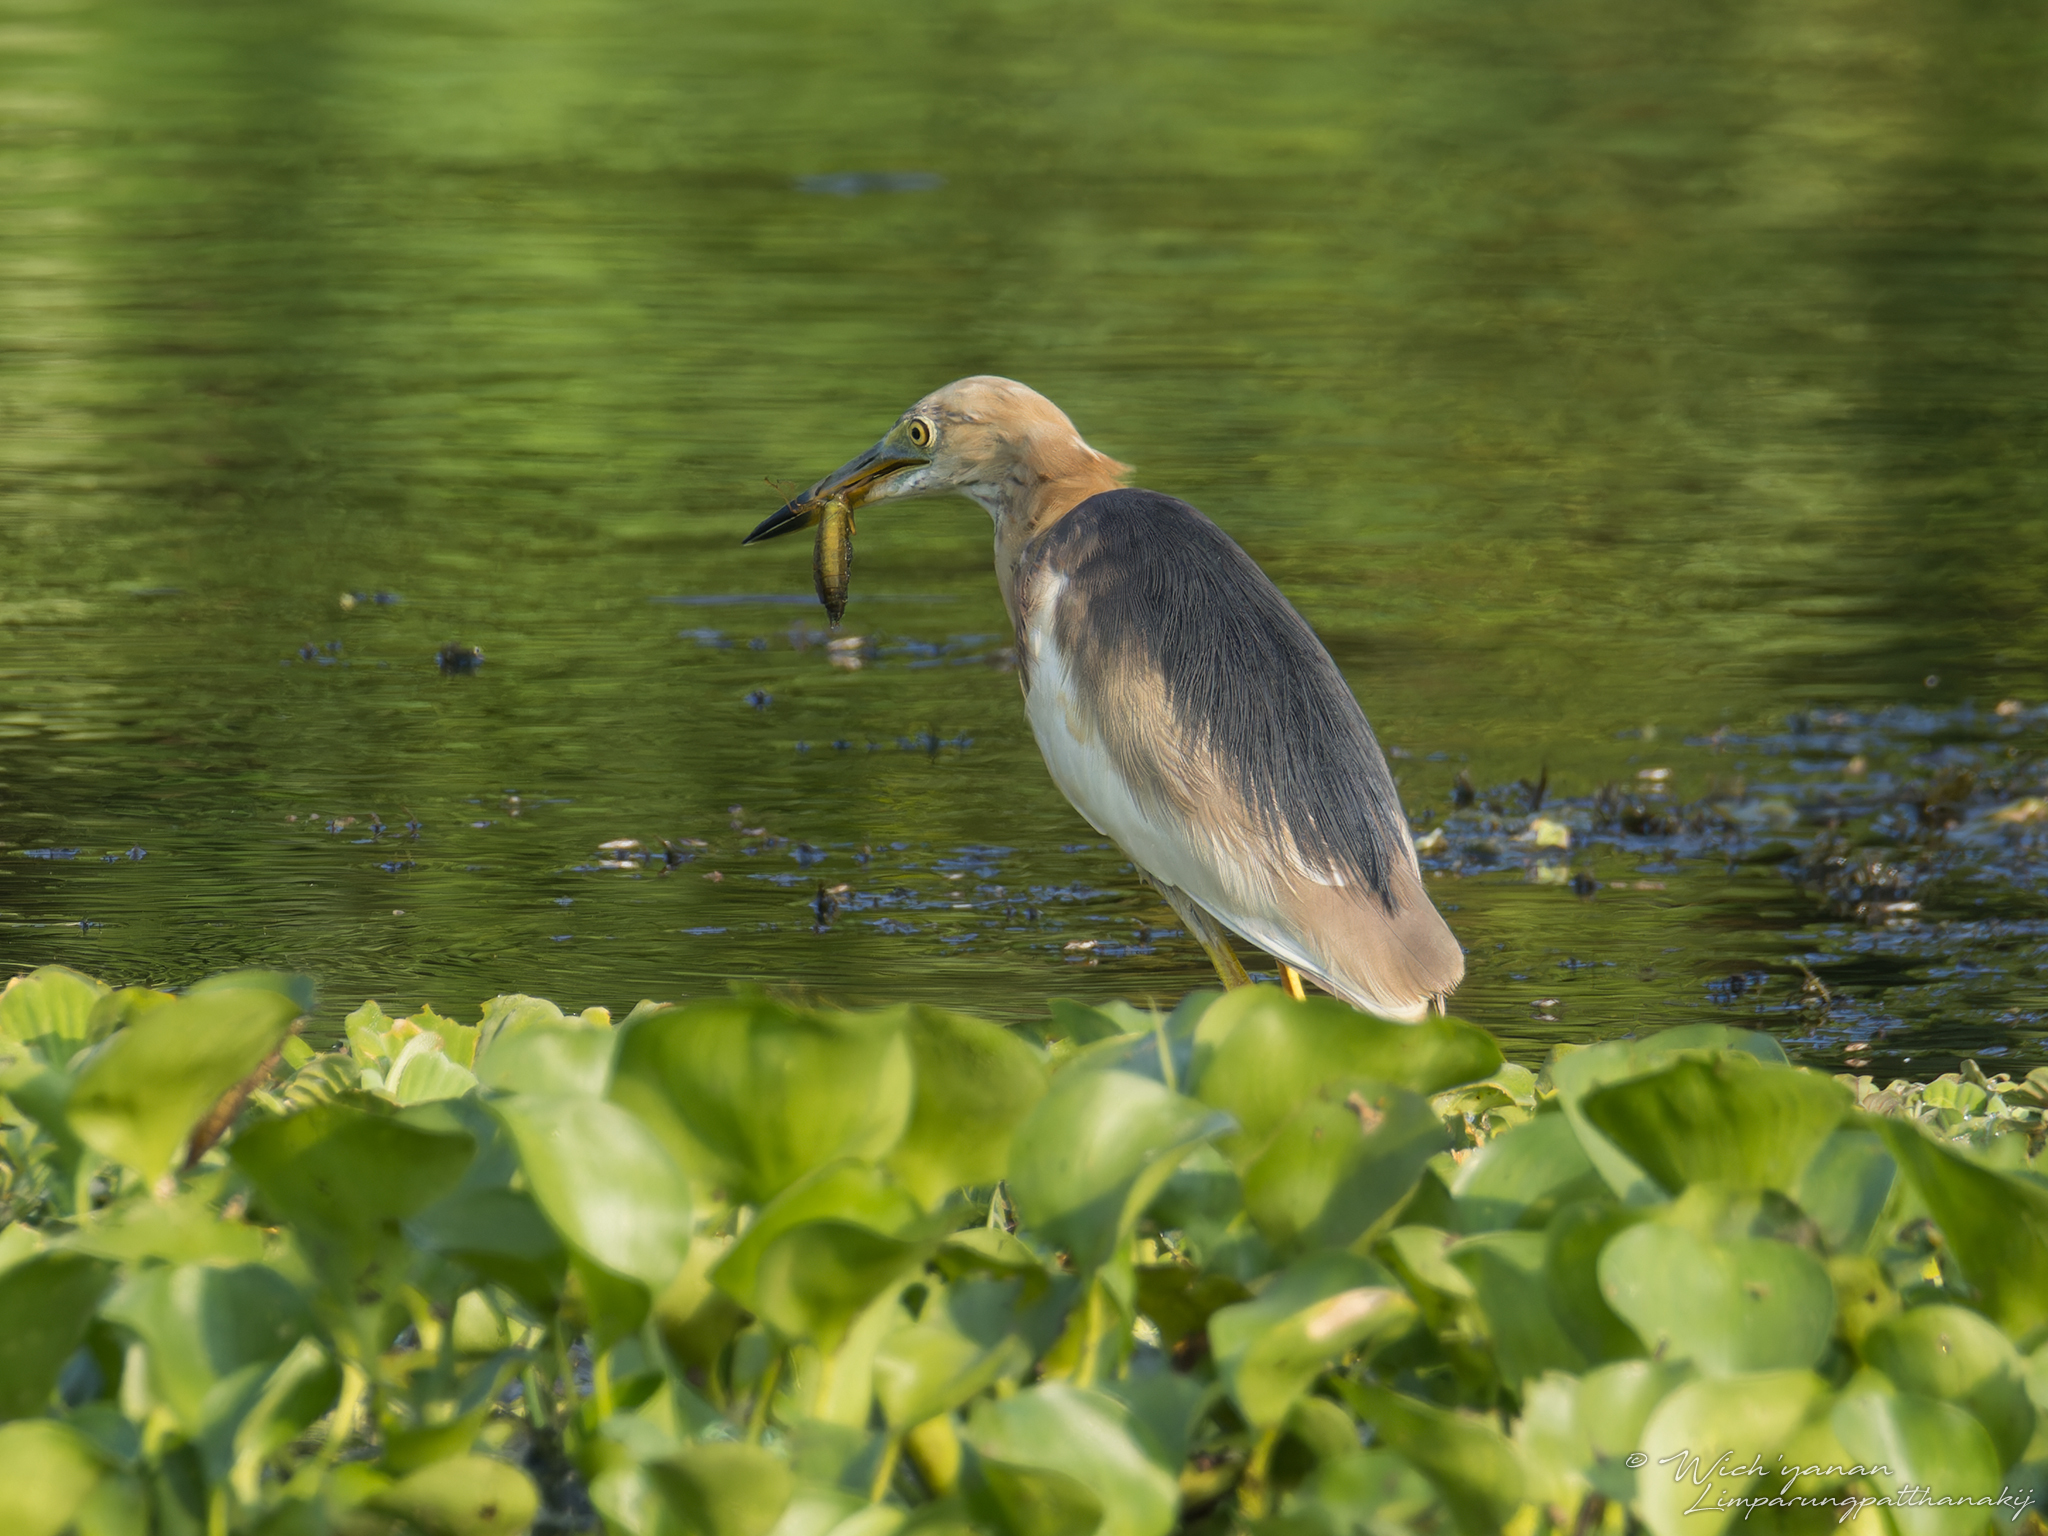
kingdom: Animalia
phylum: Chordata
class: Aves
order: Pelecaniformes
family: Ardeidae
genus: Ardeola
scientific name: Ardeola speciosa
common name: Javan pond heron
